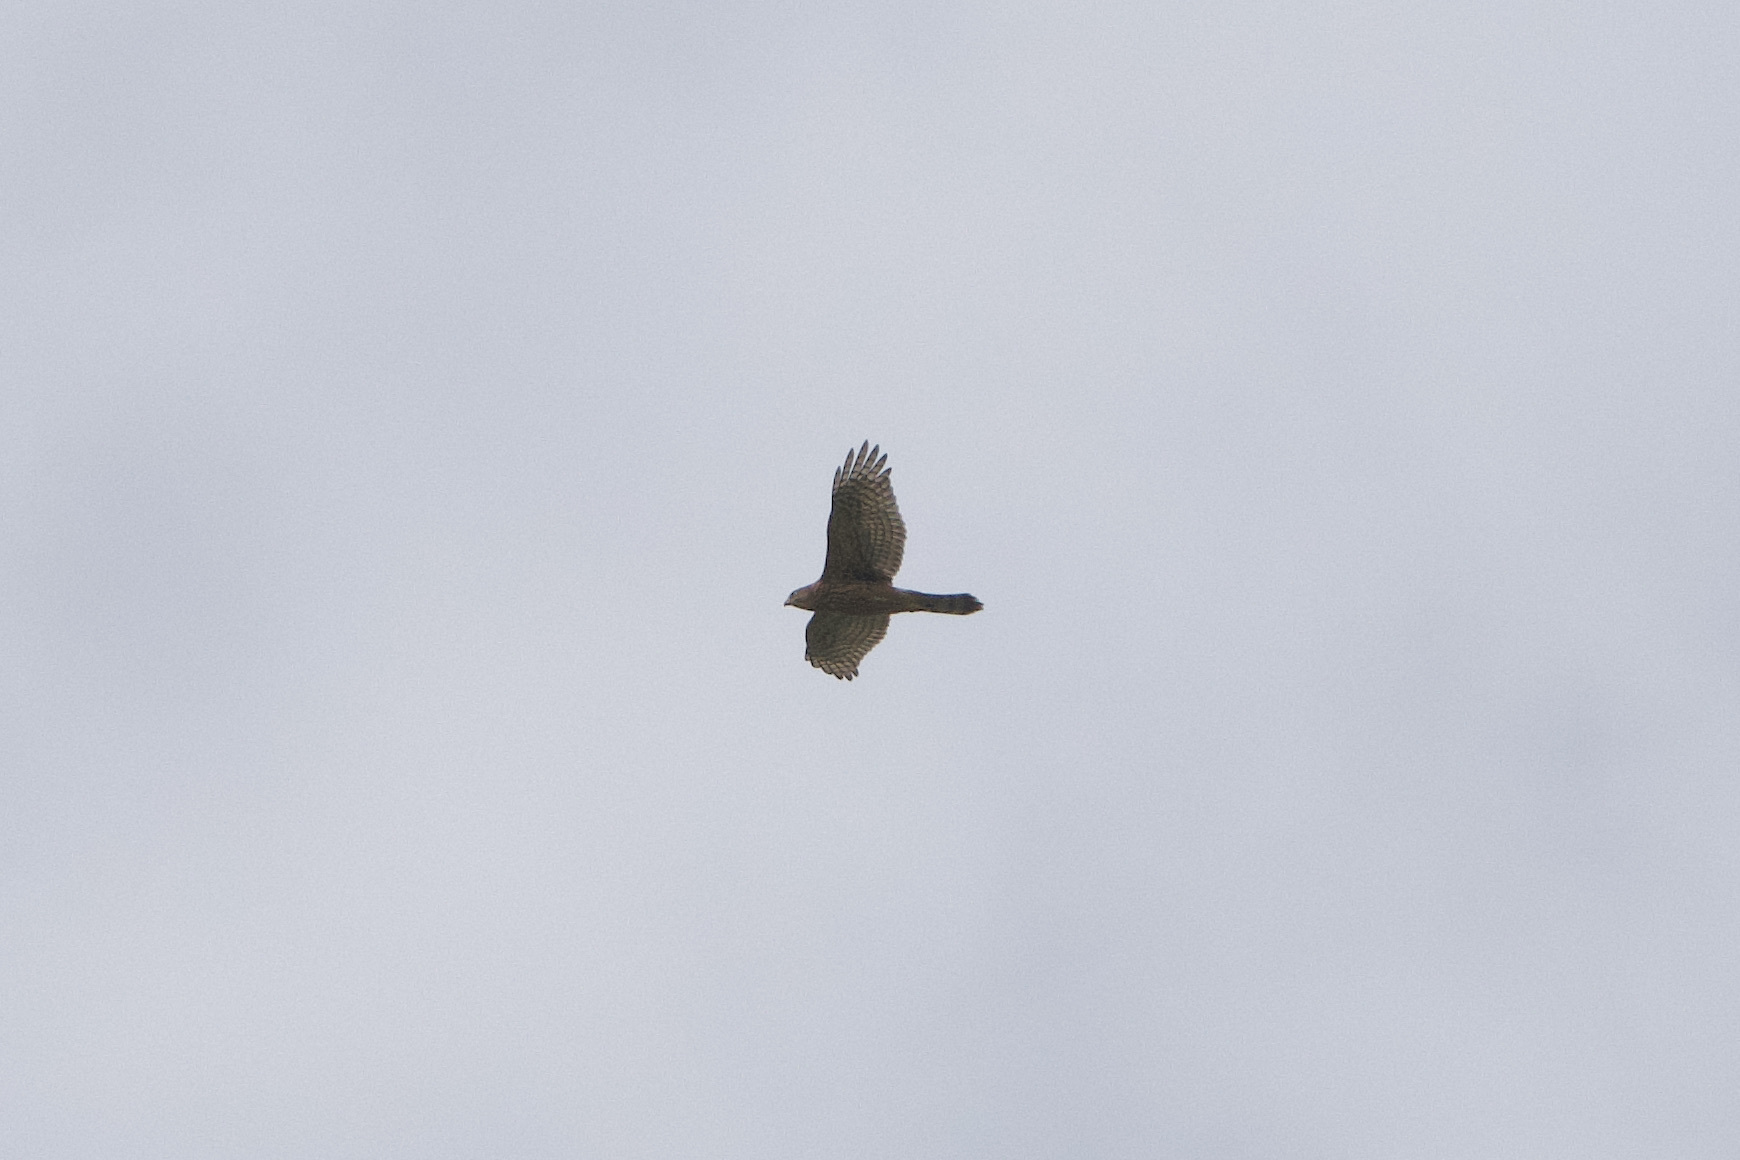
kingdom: Animalia
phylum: Chordata
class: Aves
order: Accipitriformes
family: Accipitridae
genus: Accipiter
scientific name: Accipiter gentilis
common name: Northern goshawk
